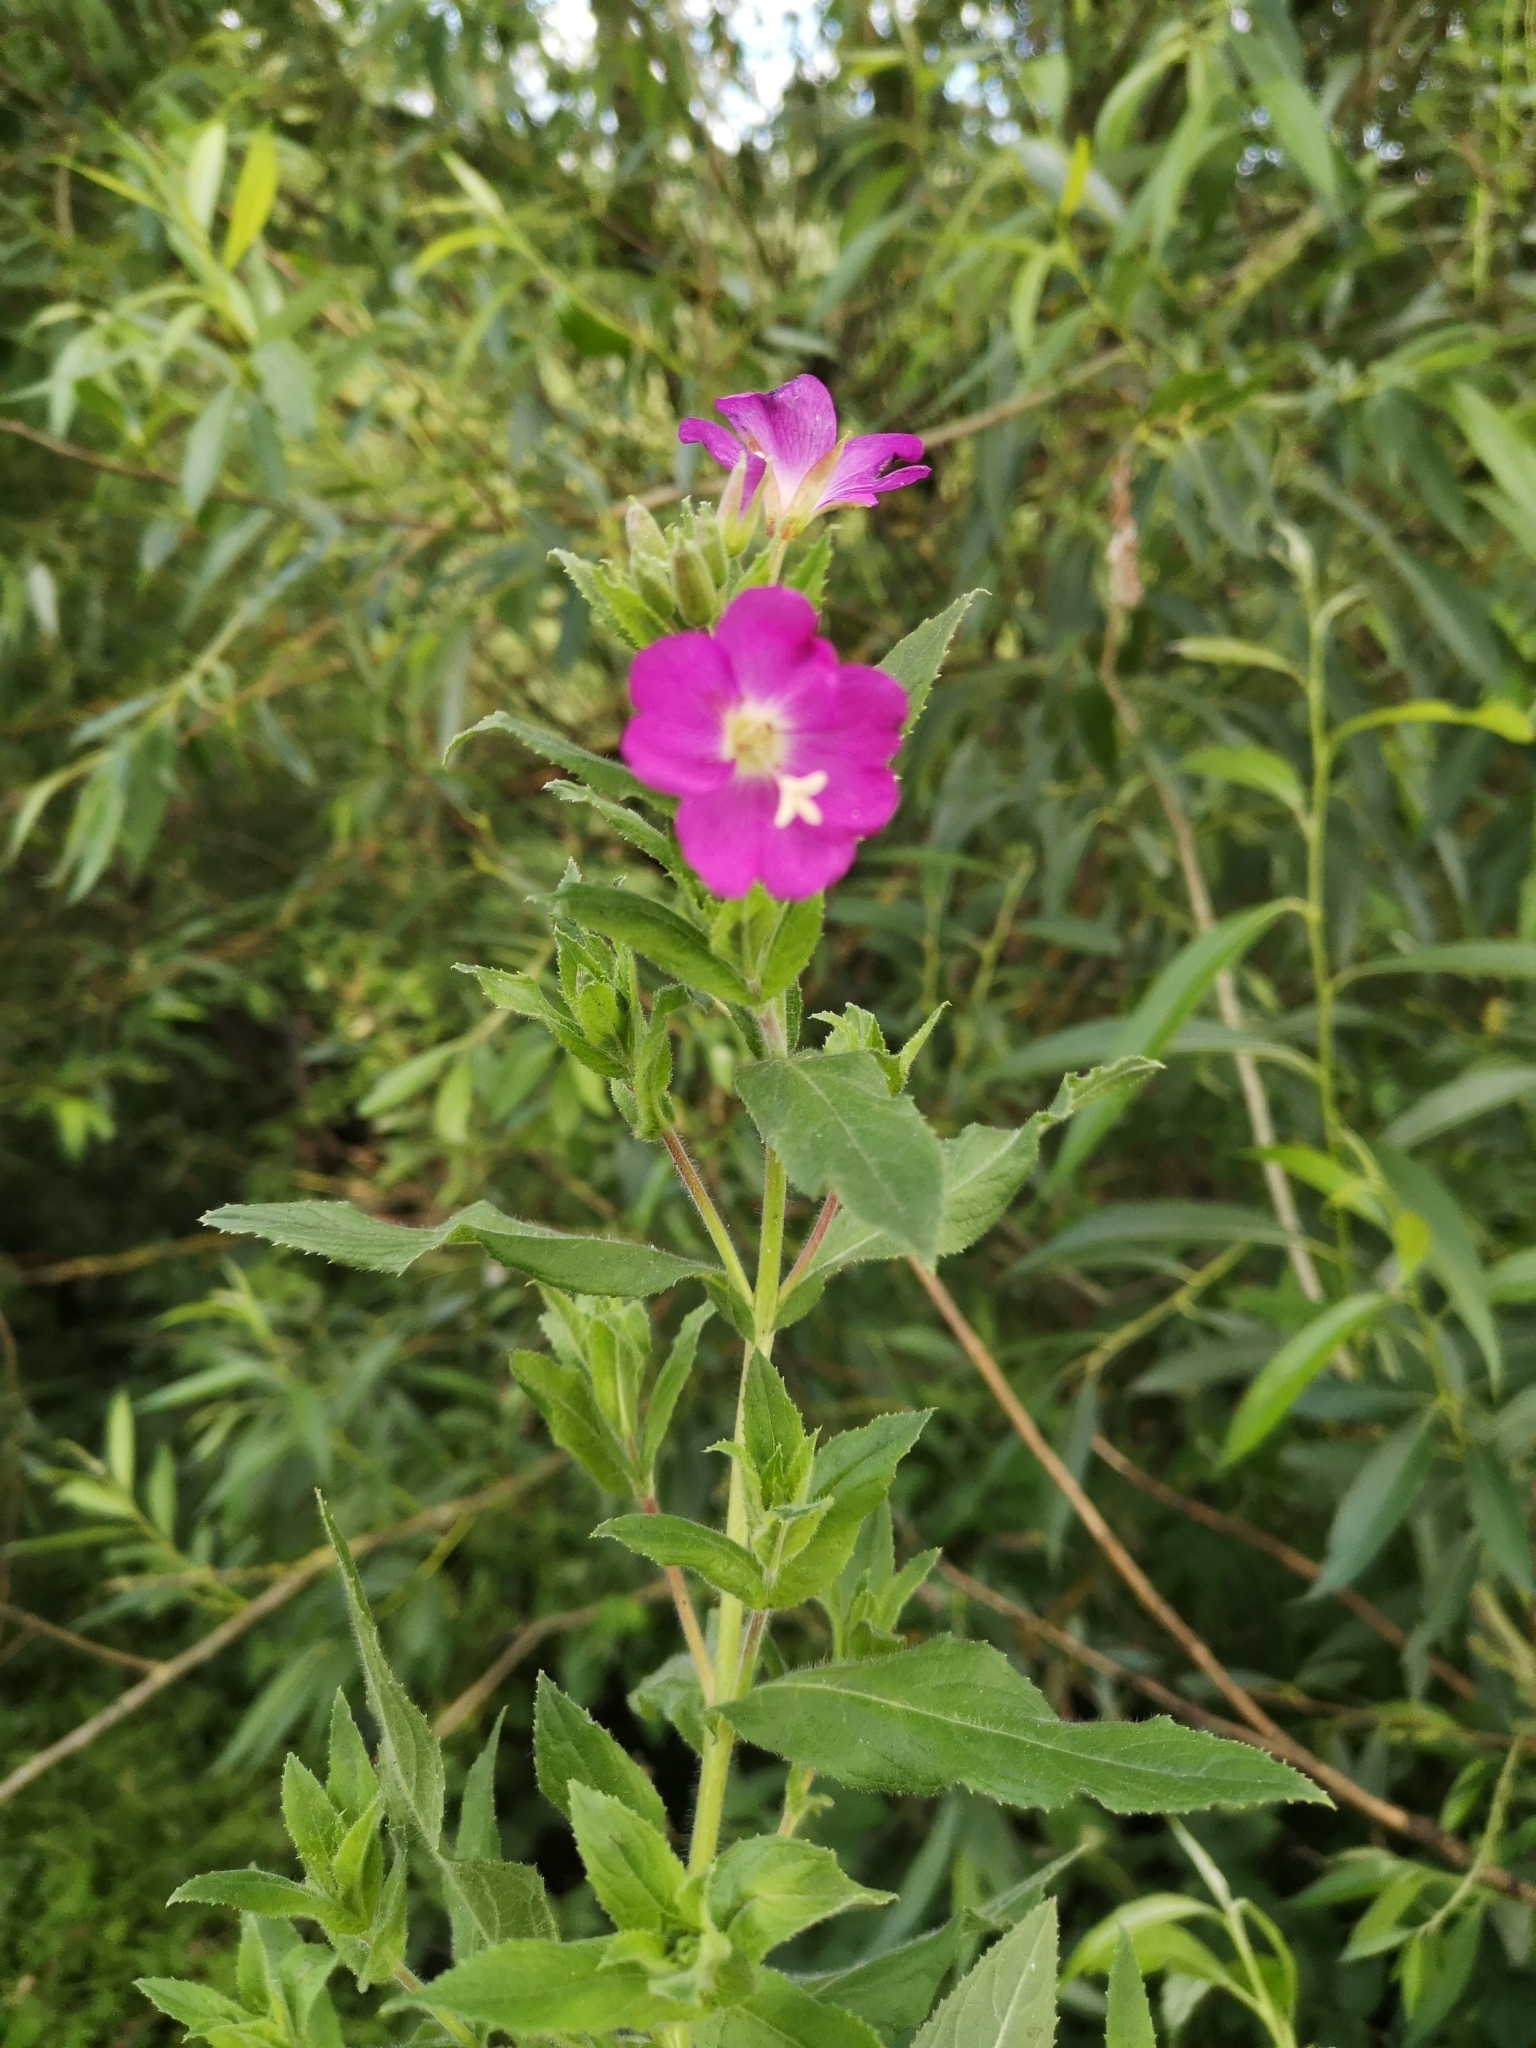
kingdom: Plantae
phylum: Tracheophyta
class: Magnoliopsida
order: Myrtales
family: Onagraceae
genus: Epilobium
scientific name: Epilobium hirsutum
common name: Great willowherb
